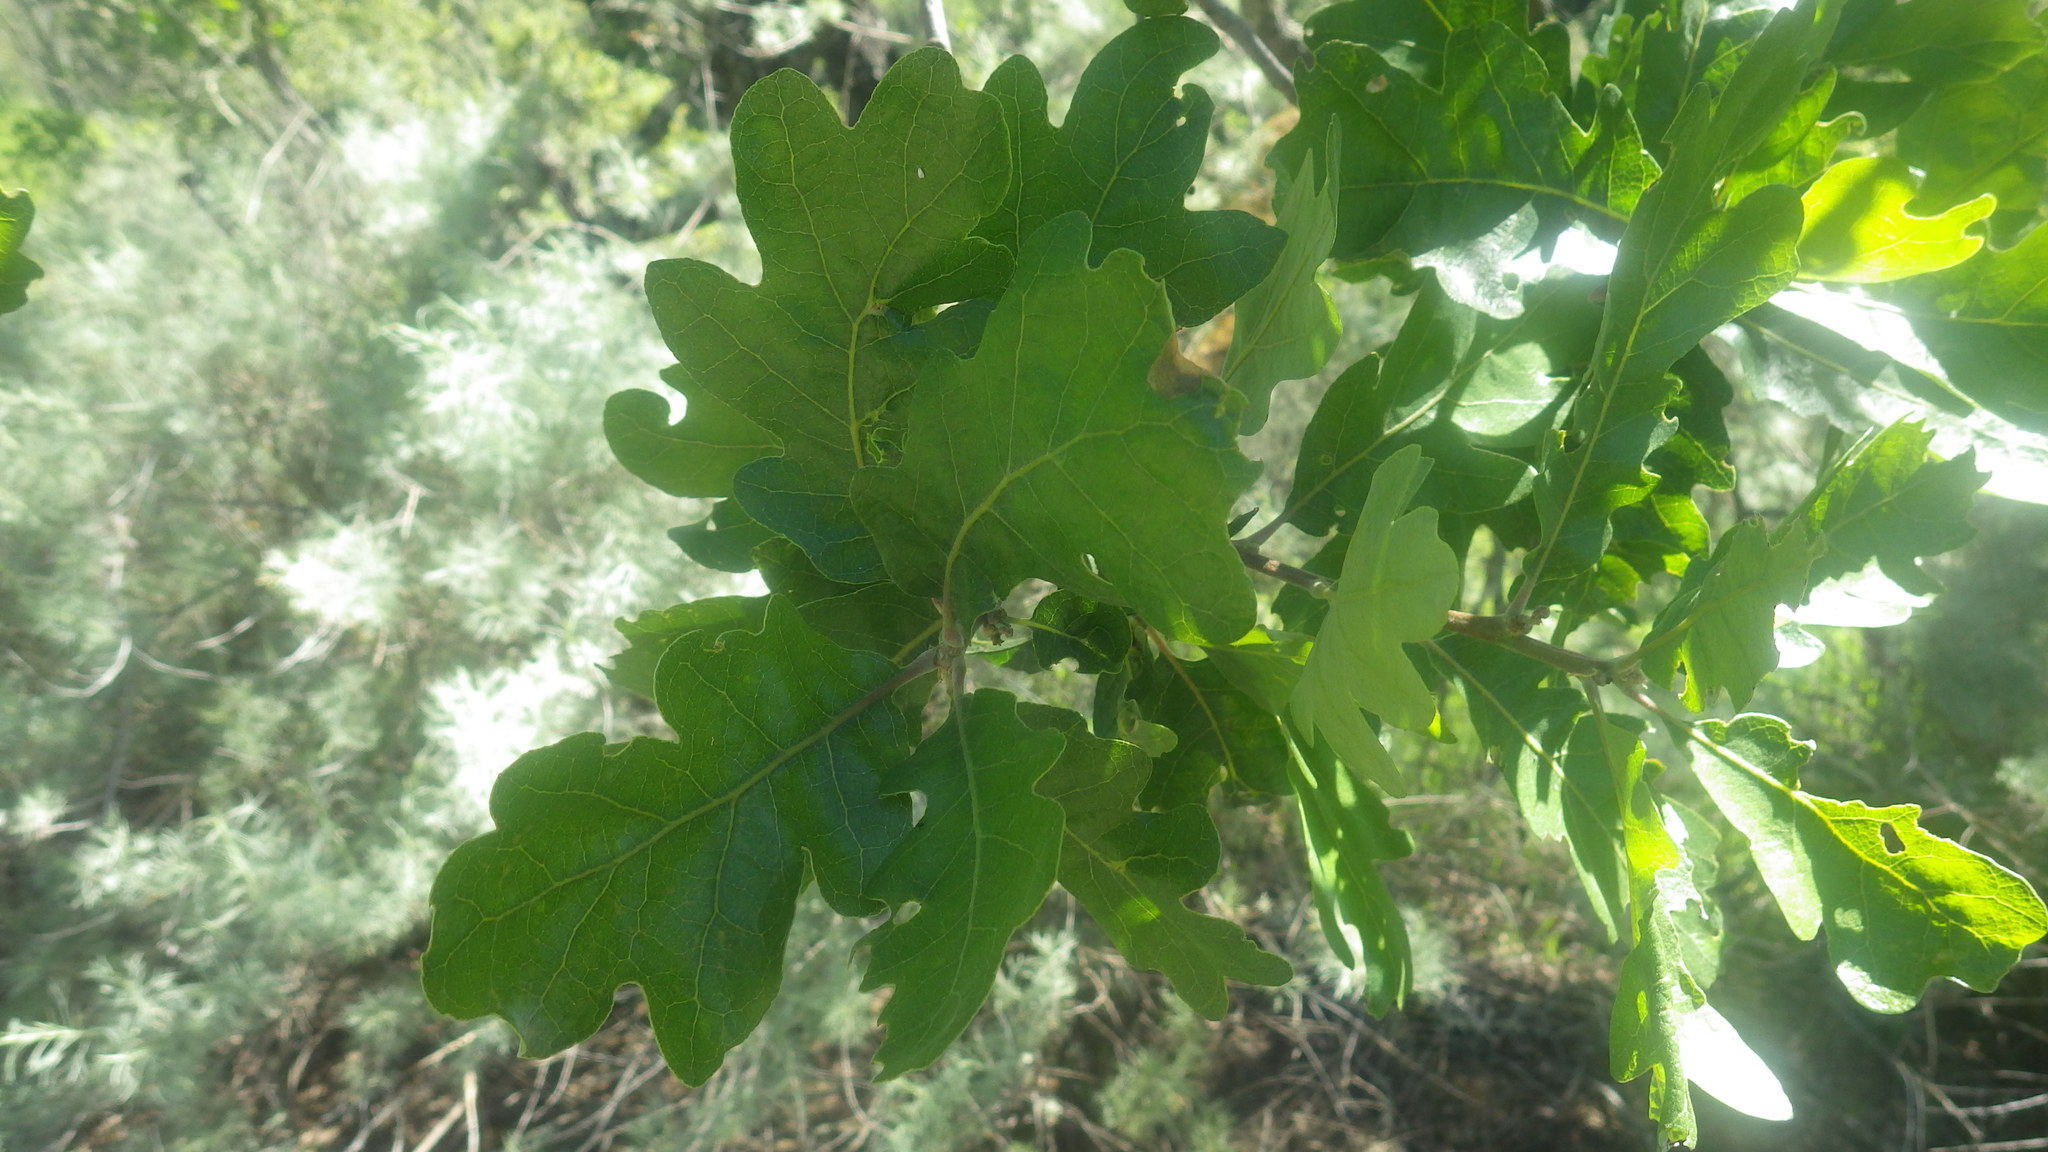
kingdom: Plantae
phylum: Tracheophyta
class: Magnoliopsida
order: Fagales
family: Fagaceae
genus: Quercus
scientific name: Quercus lobata
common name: Valley oak
